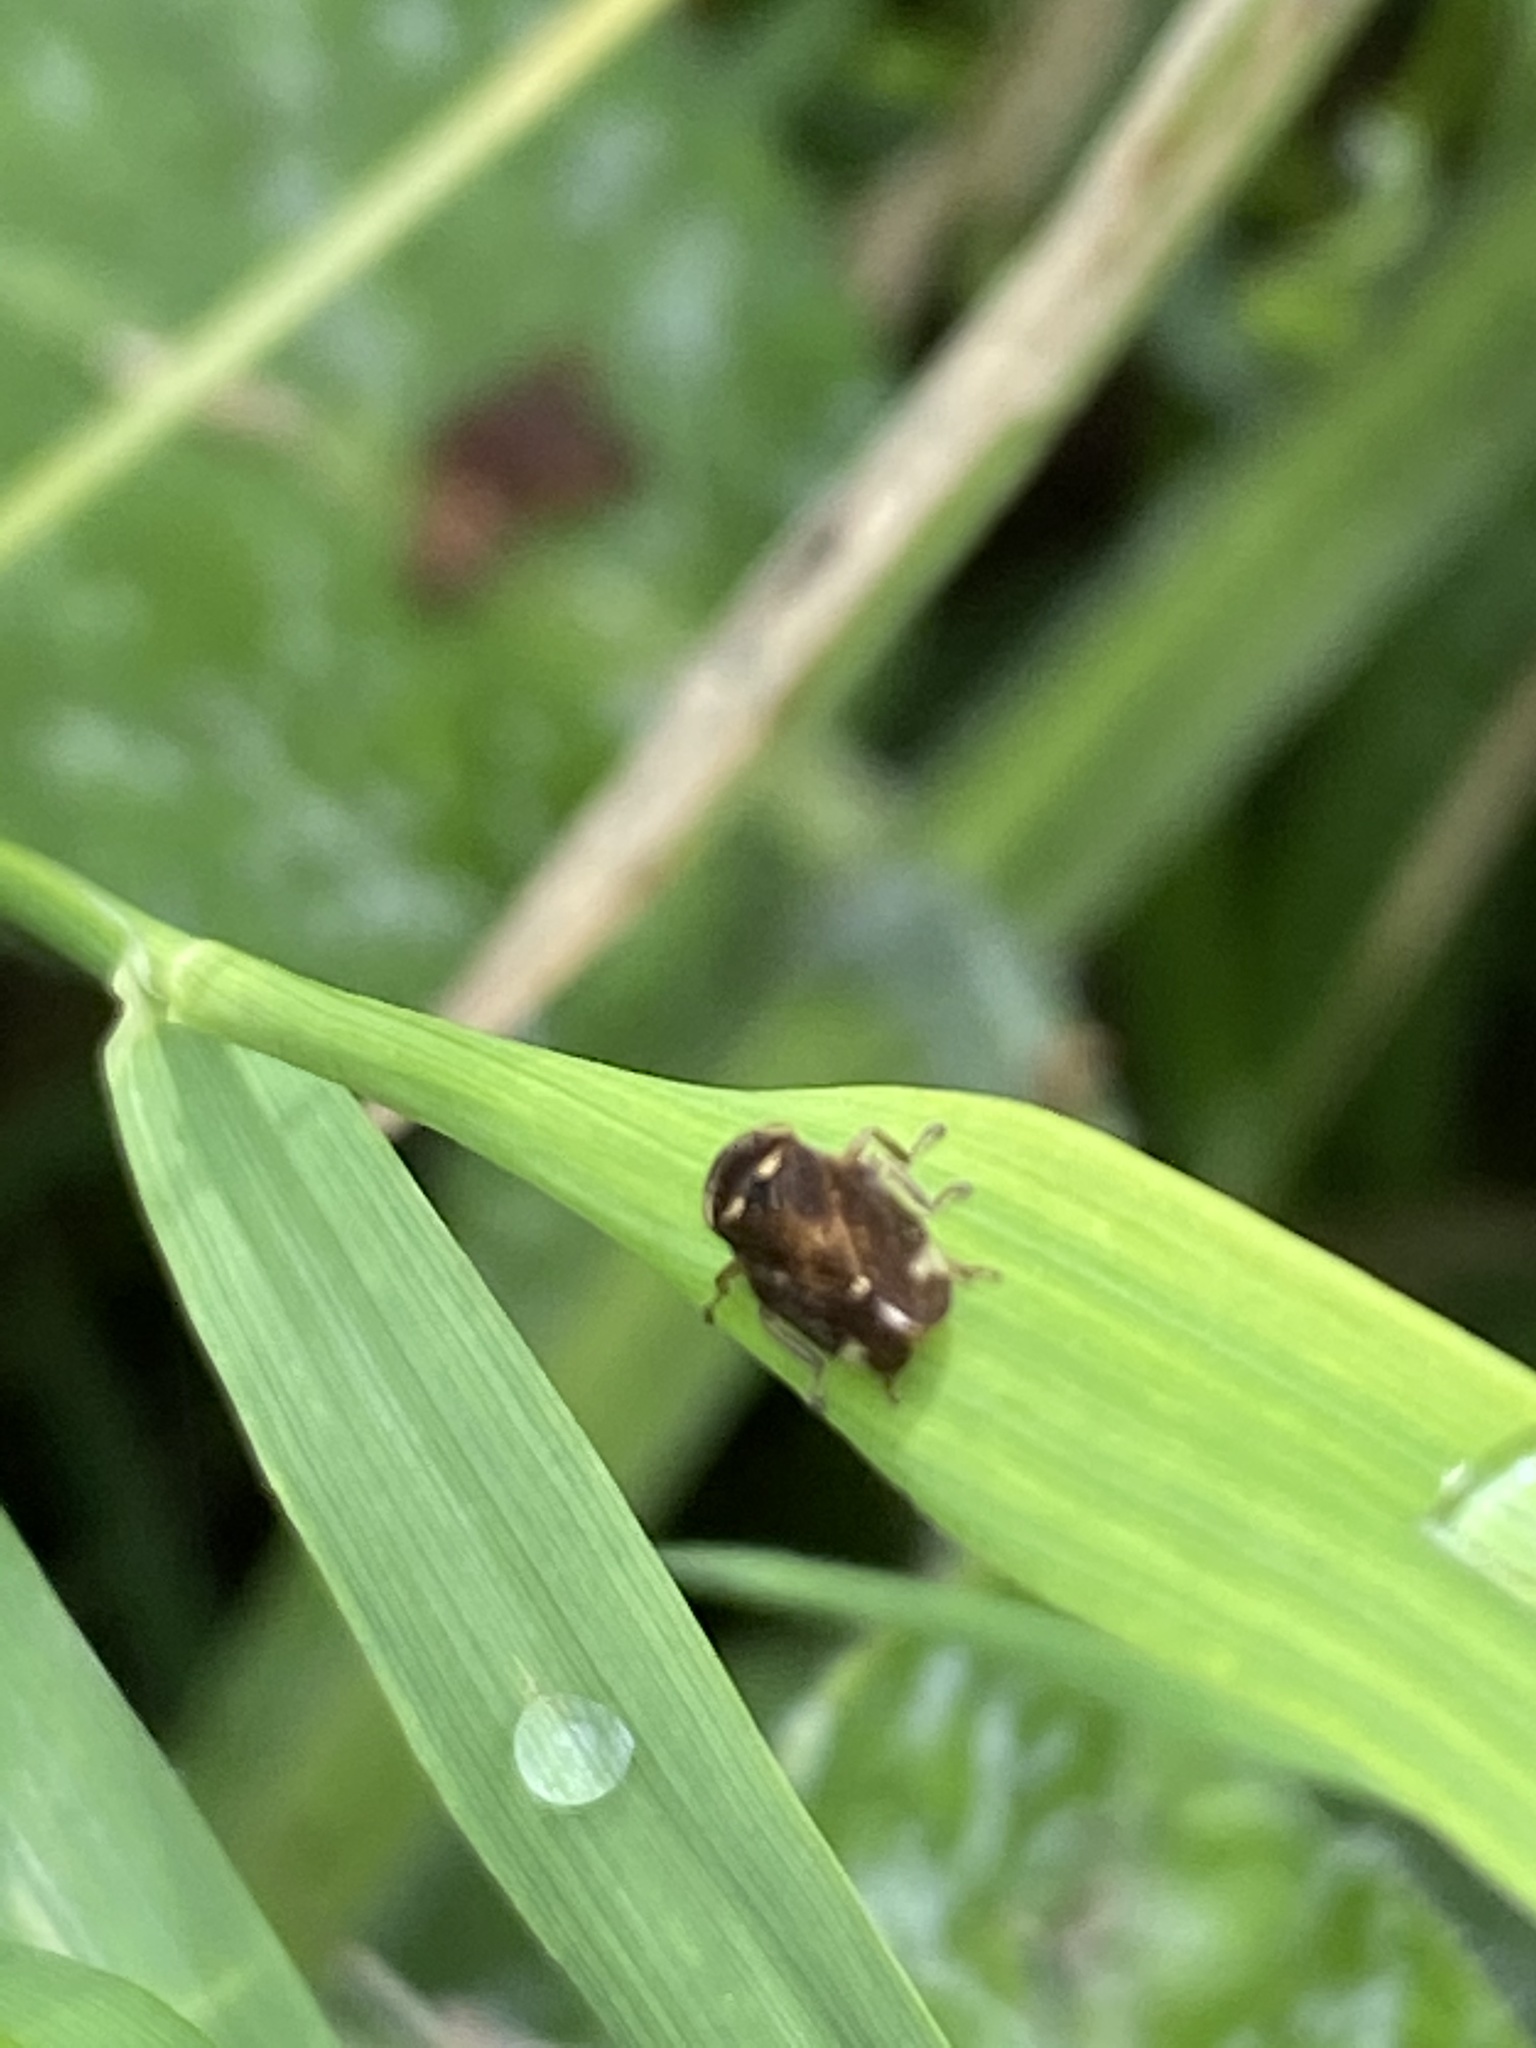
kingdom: Animalia
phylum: Arthropoda
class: Insecta
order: Hemiptera
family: Aphrophoridae
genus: Philaenus
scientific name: Philaenus spumarius
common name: Meadow spittlebug
